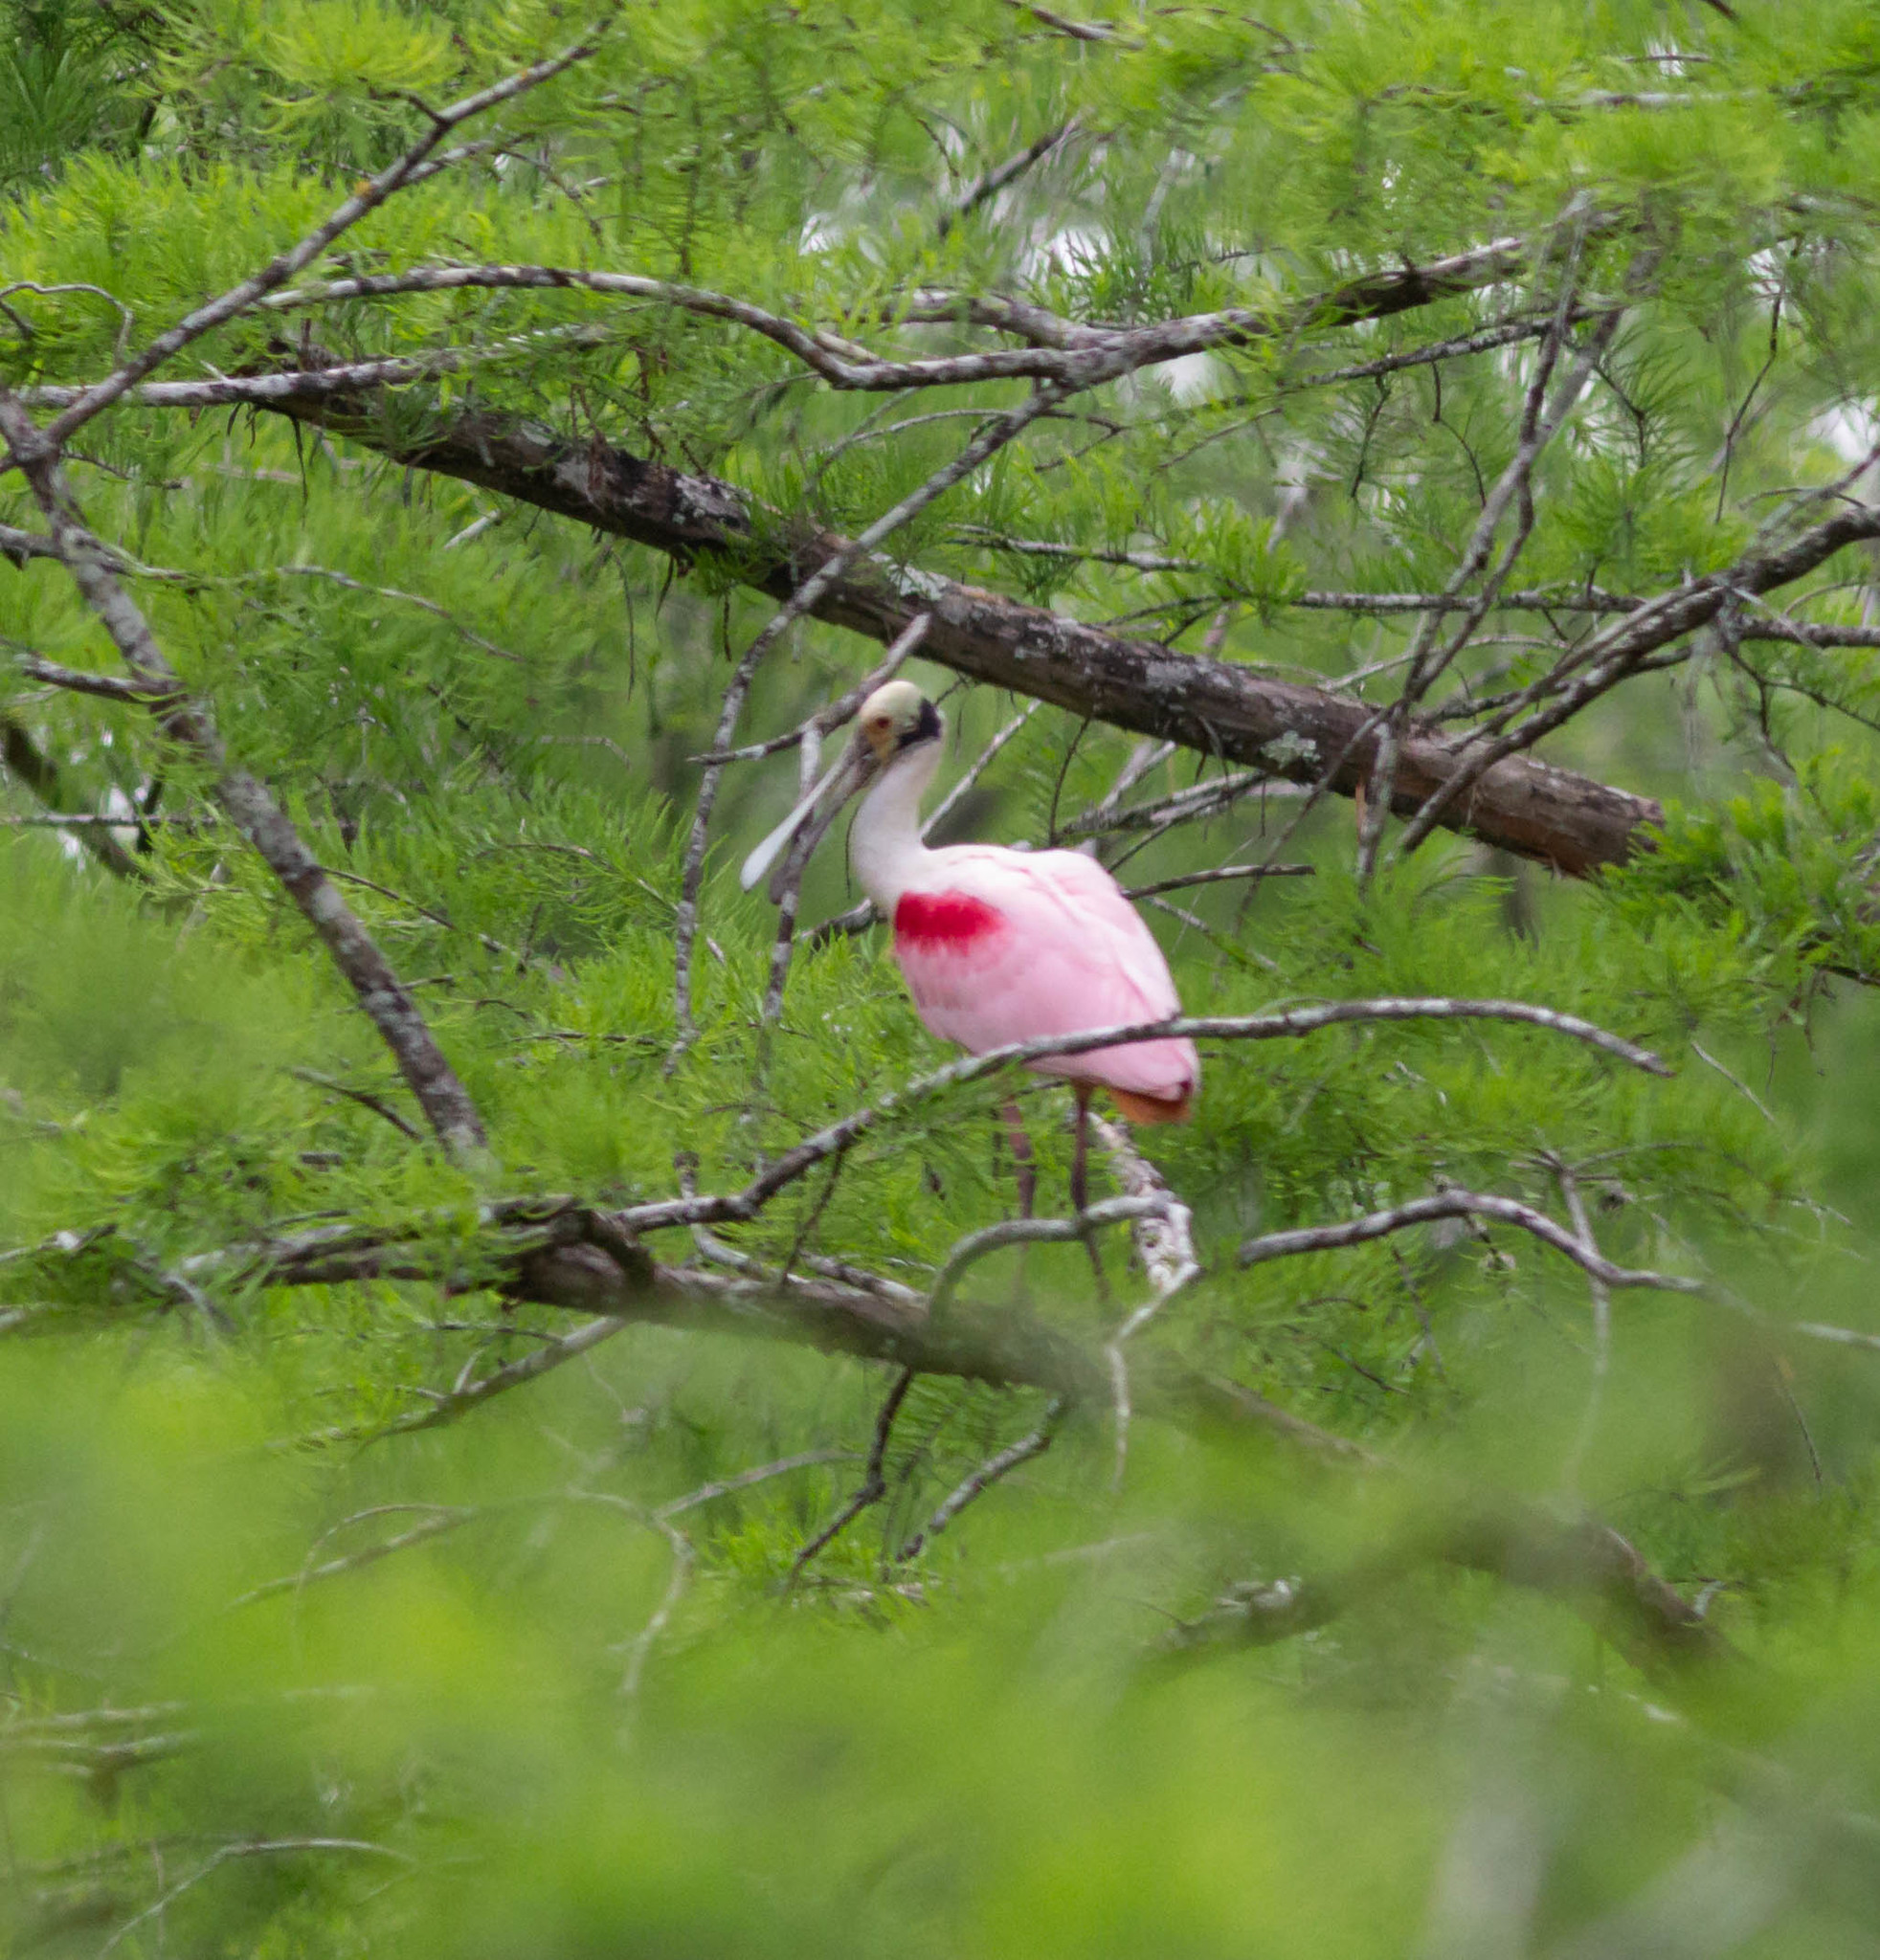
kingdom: Animalia
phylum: Chordata
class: Aves
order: Pelecaniformes
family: Threskiornithidae
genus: Platalea
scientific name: Platalea ajaja
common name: Roseate spoonbill
